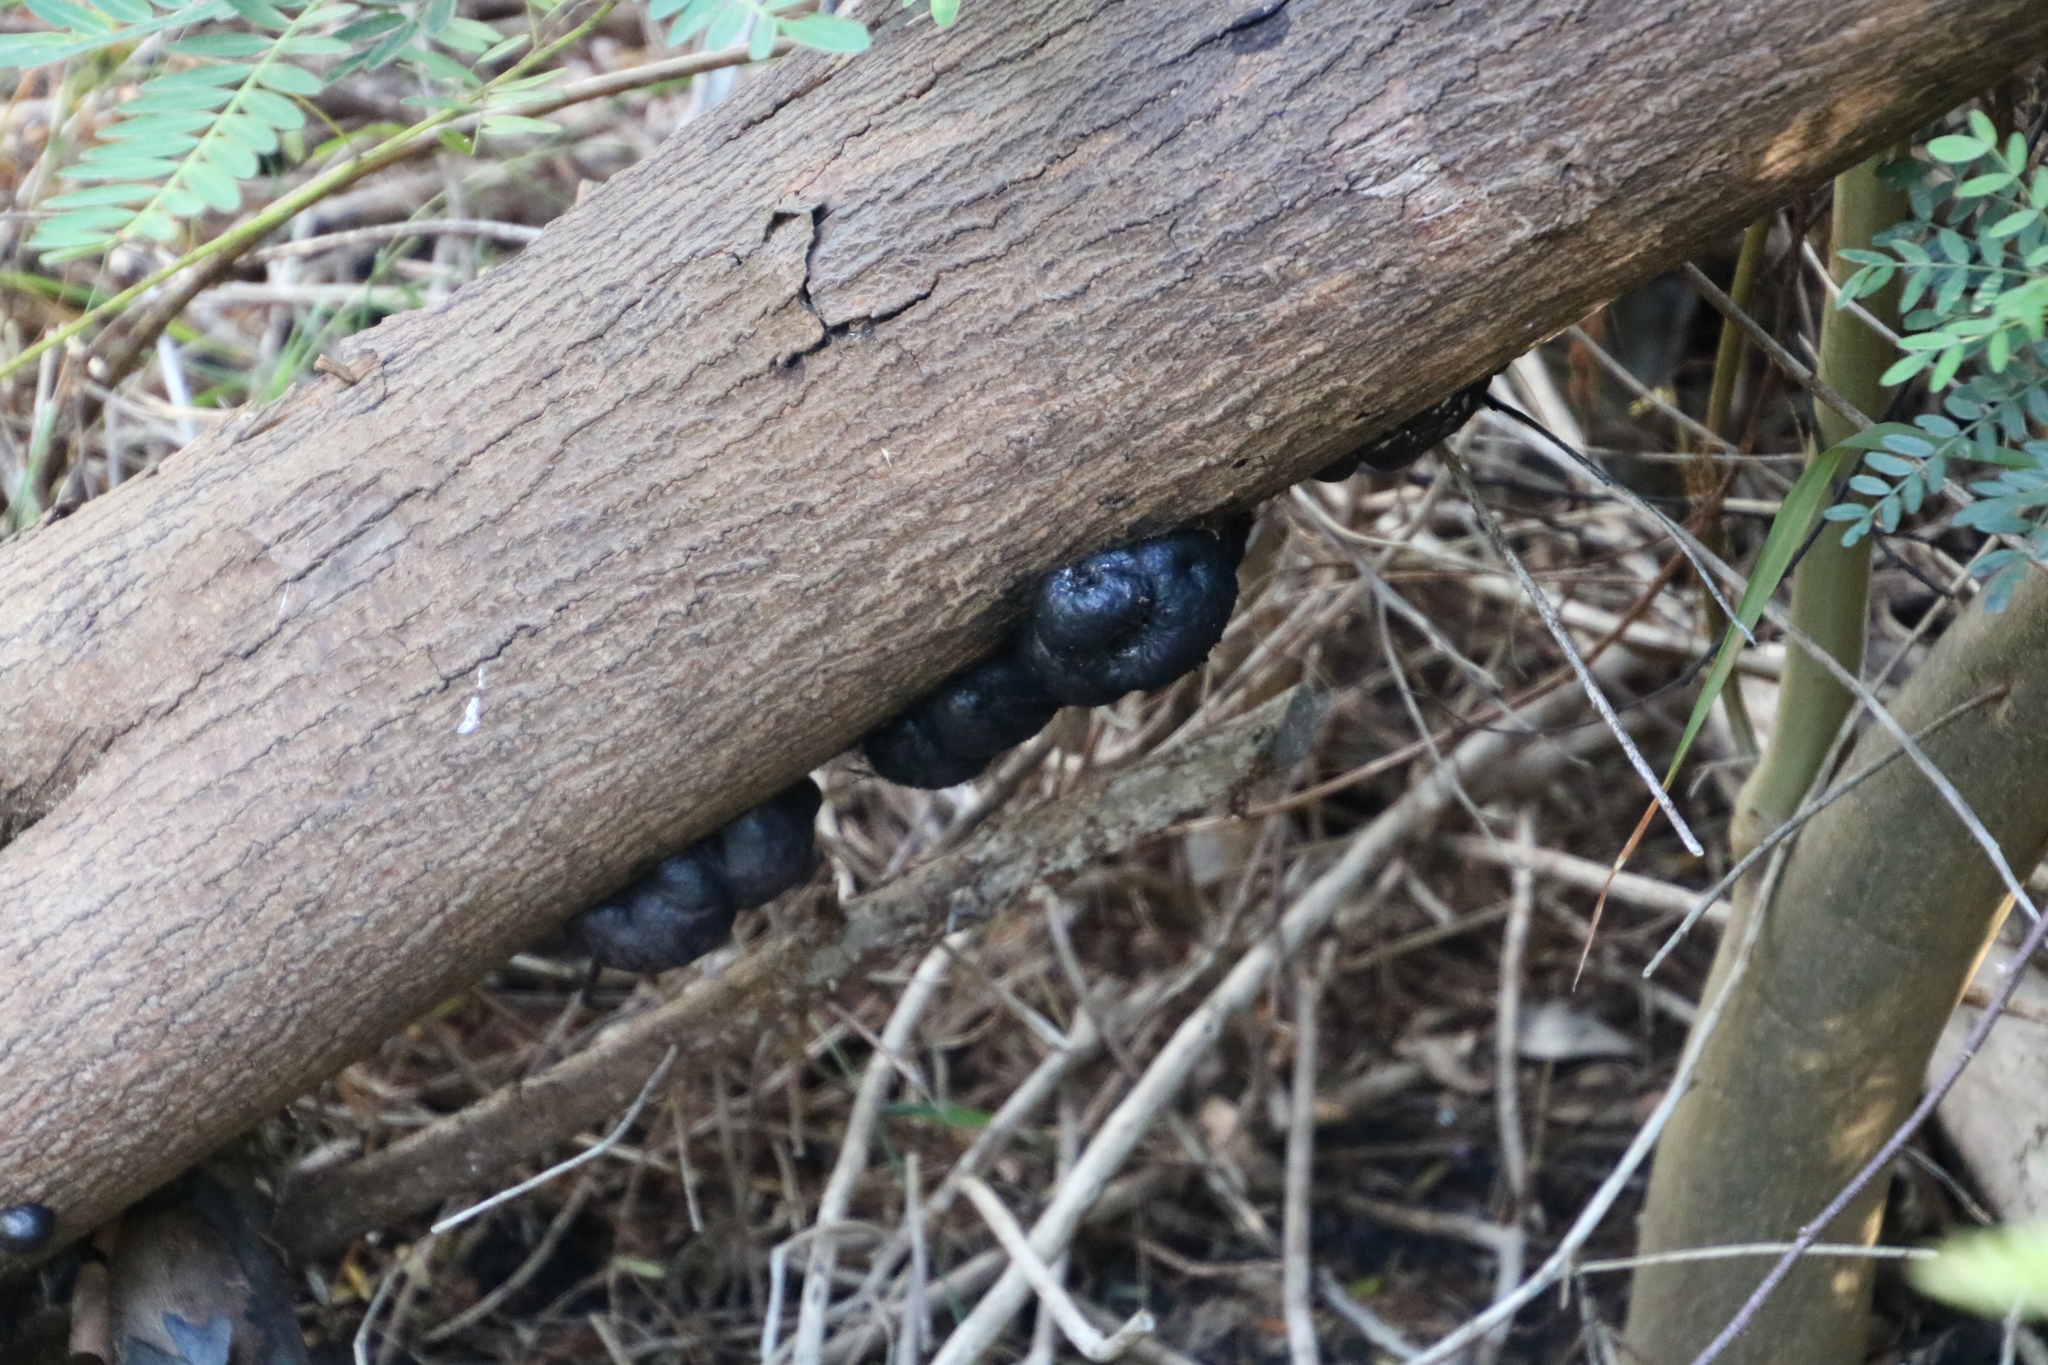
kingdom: Fungi
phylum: Ascomycota
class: Sordariomycetes
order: Xylariales
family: Hypoxylaceae
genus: Daldinia
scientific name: Daldinia concentrica
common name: Cramp balls
